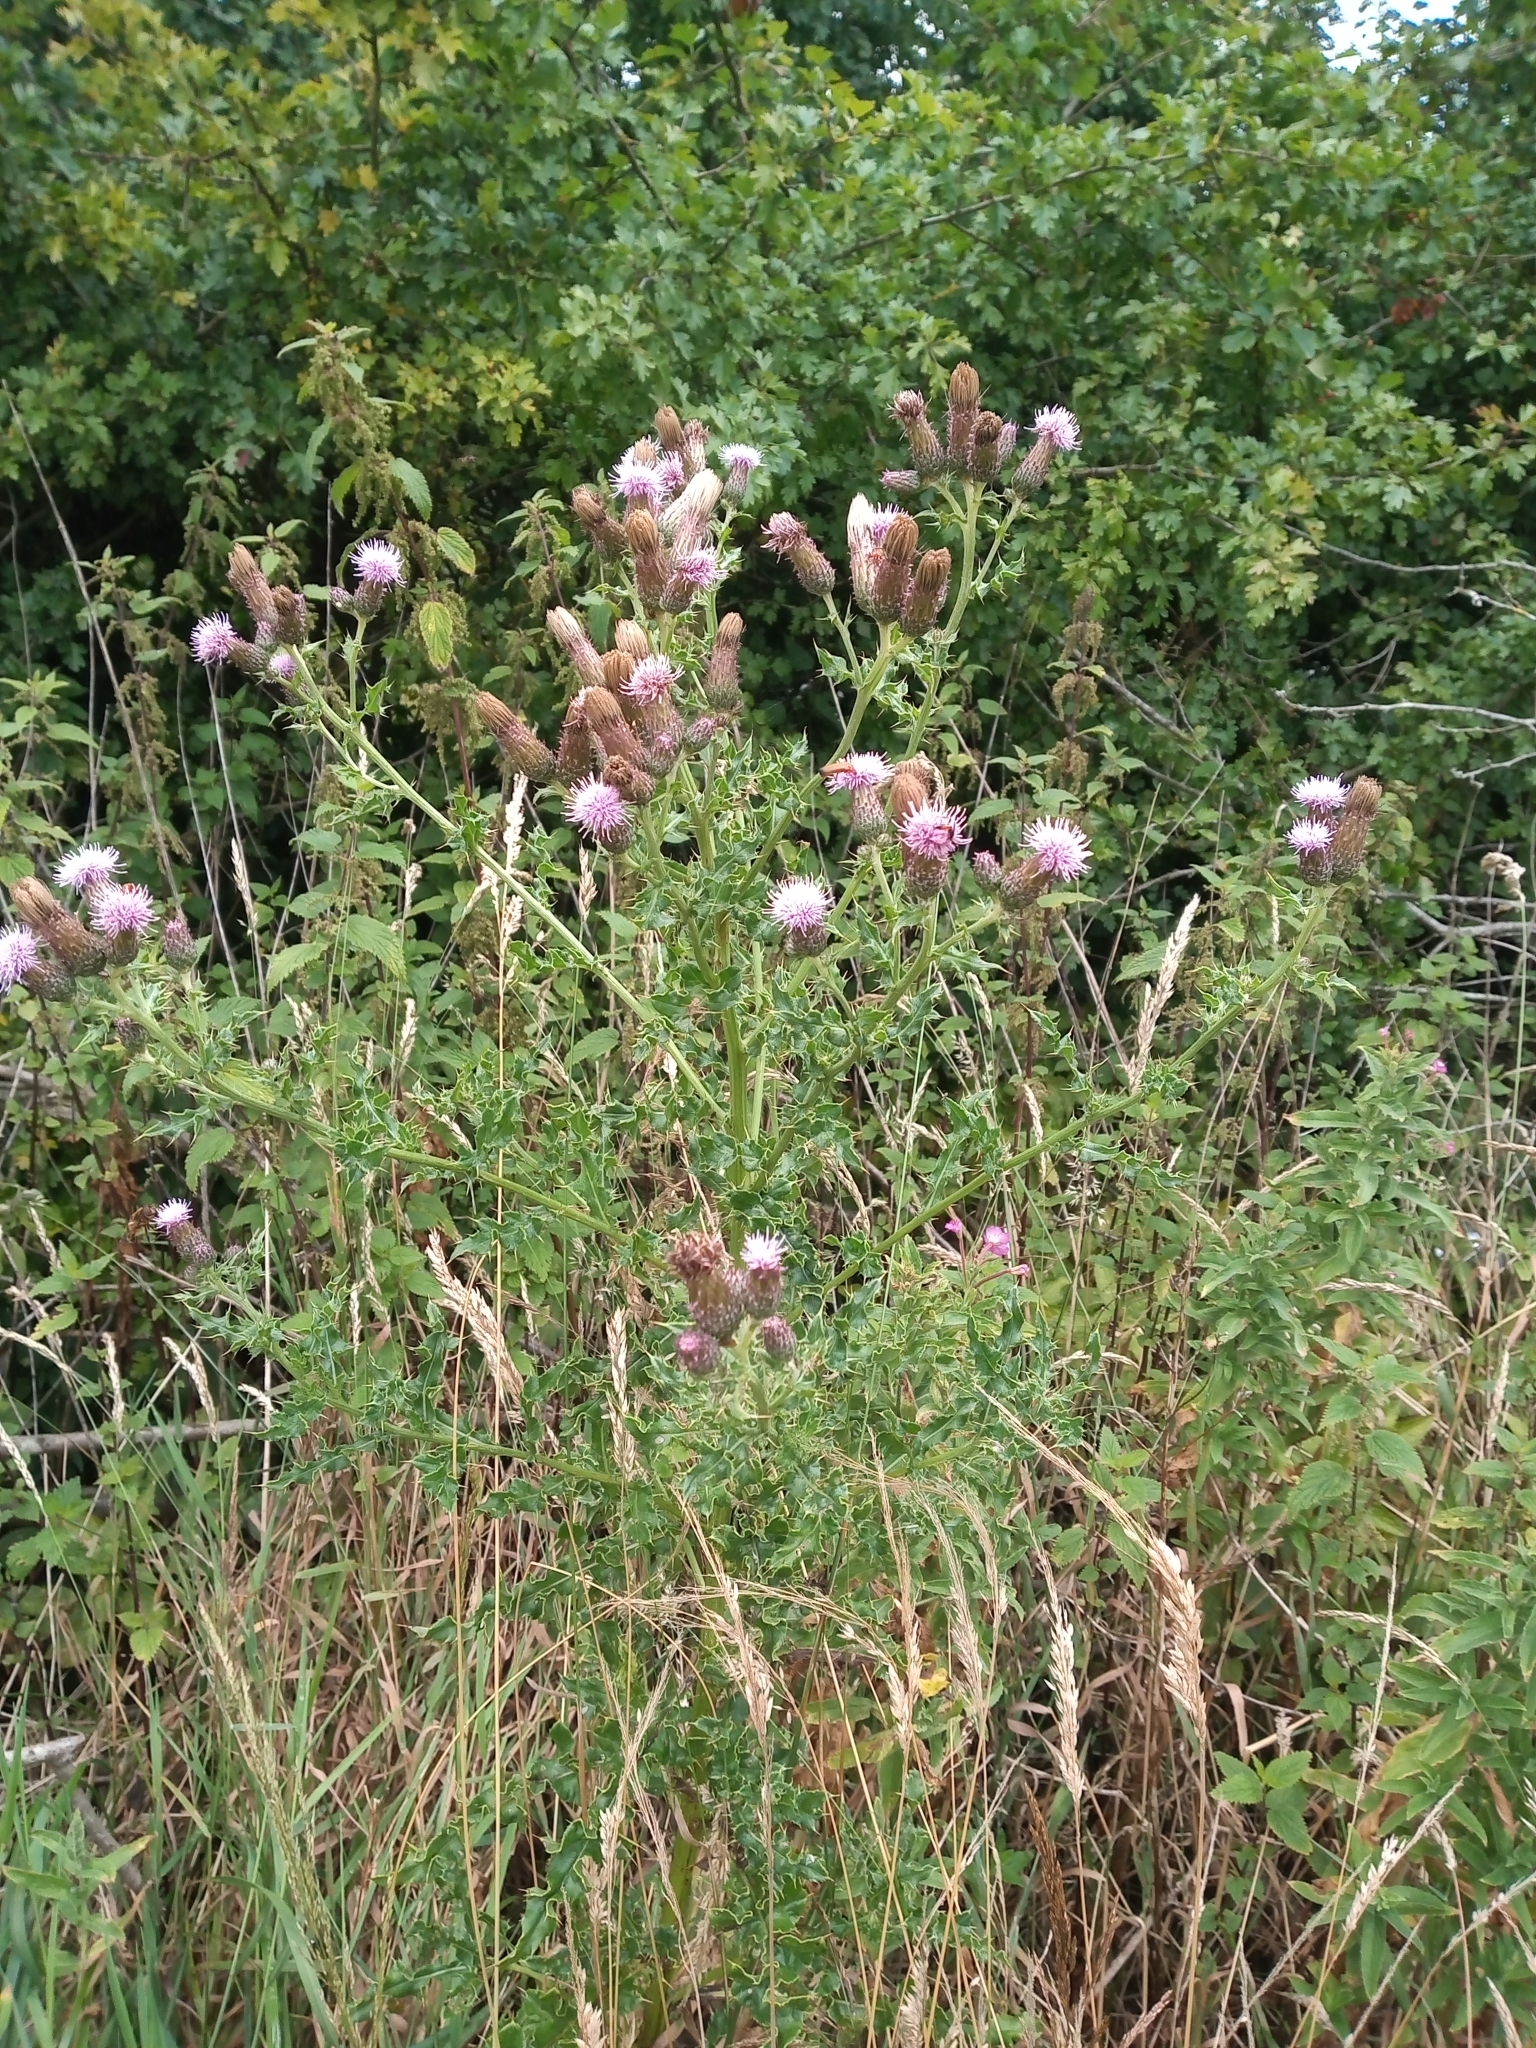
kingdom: Plantae
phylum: Tracheophyta
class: Magnoliopsida
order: Asterales
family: Asteraceae
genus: Cirsium
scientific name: Cirsium arvense
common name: Creeping thistle
